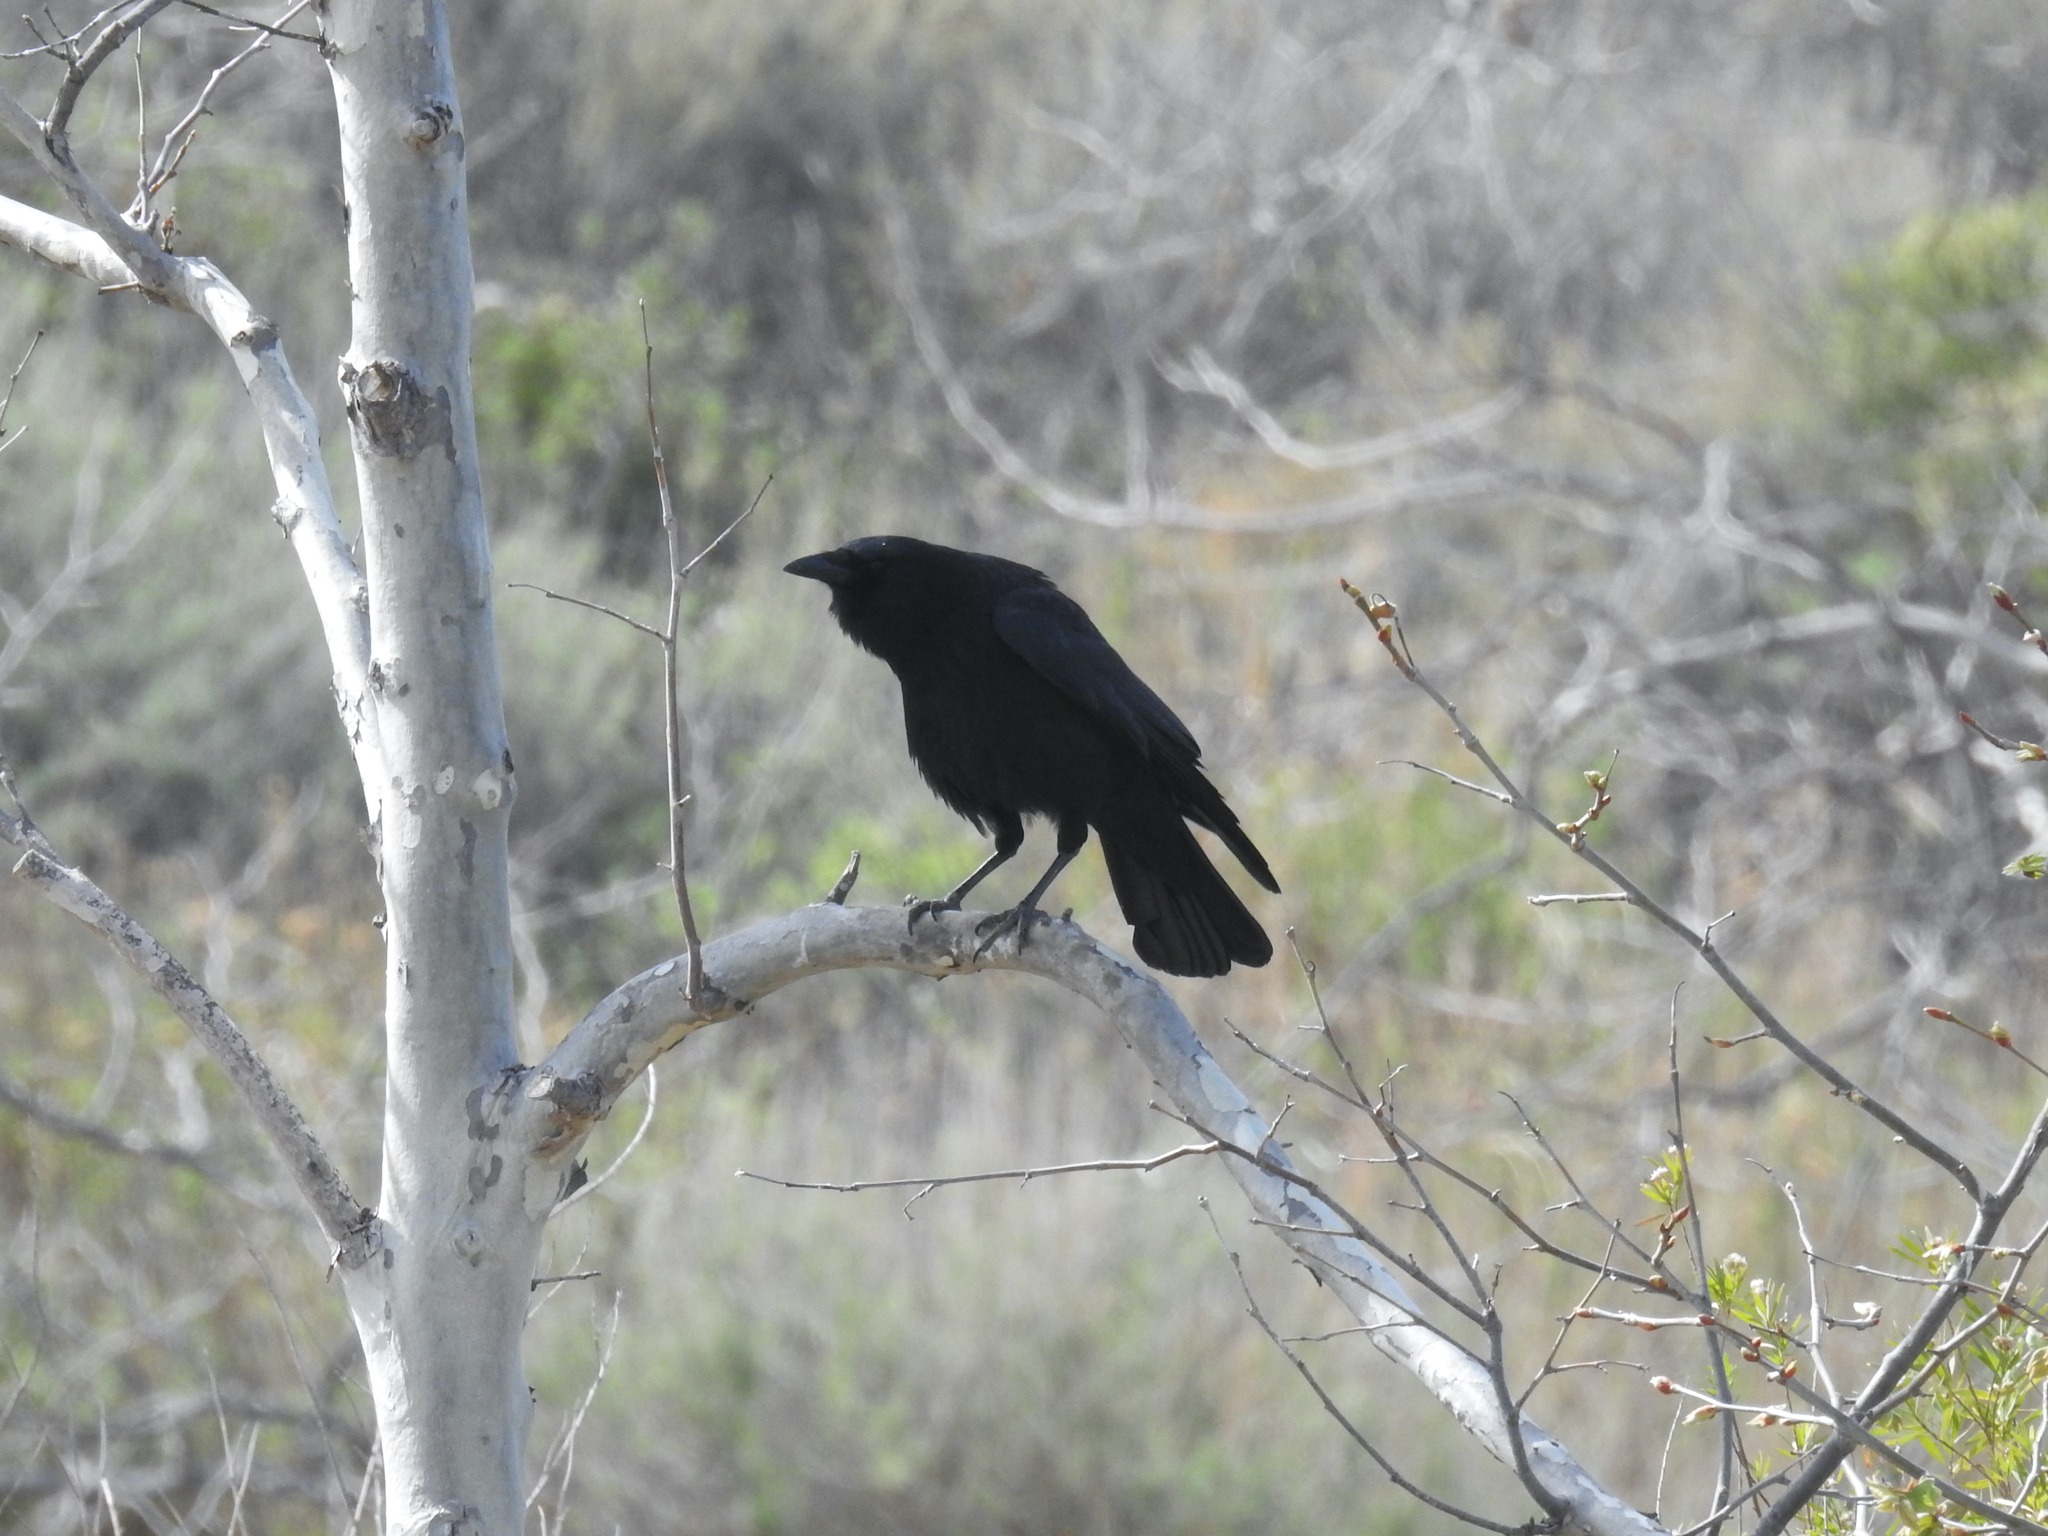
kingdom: Animalia
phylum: Chordata
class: Aves
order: Passeriformes
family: Corvidae
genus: Corvus
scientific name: Corvus brachyrhynchos
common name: American crow
